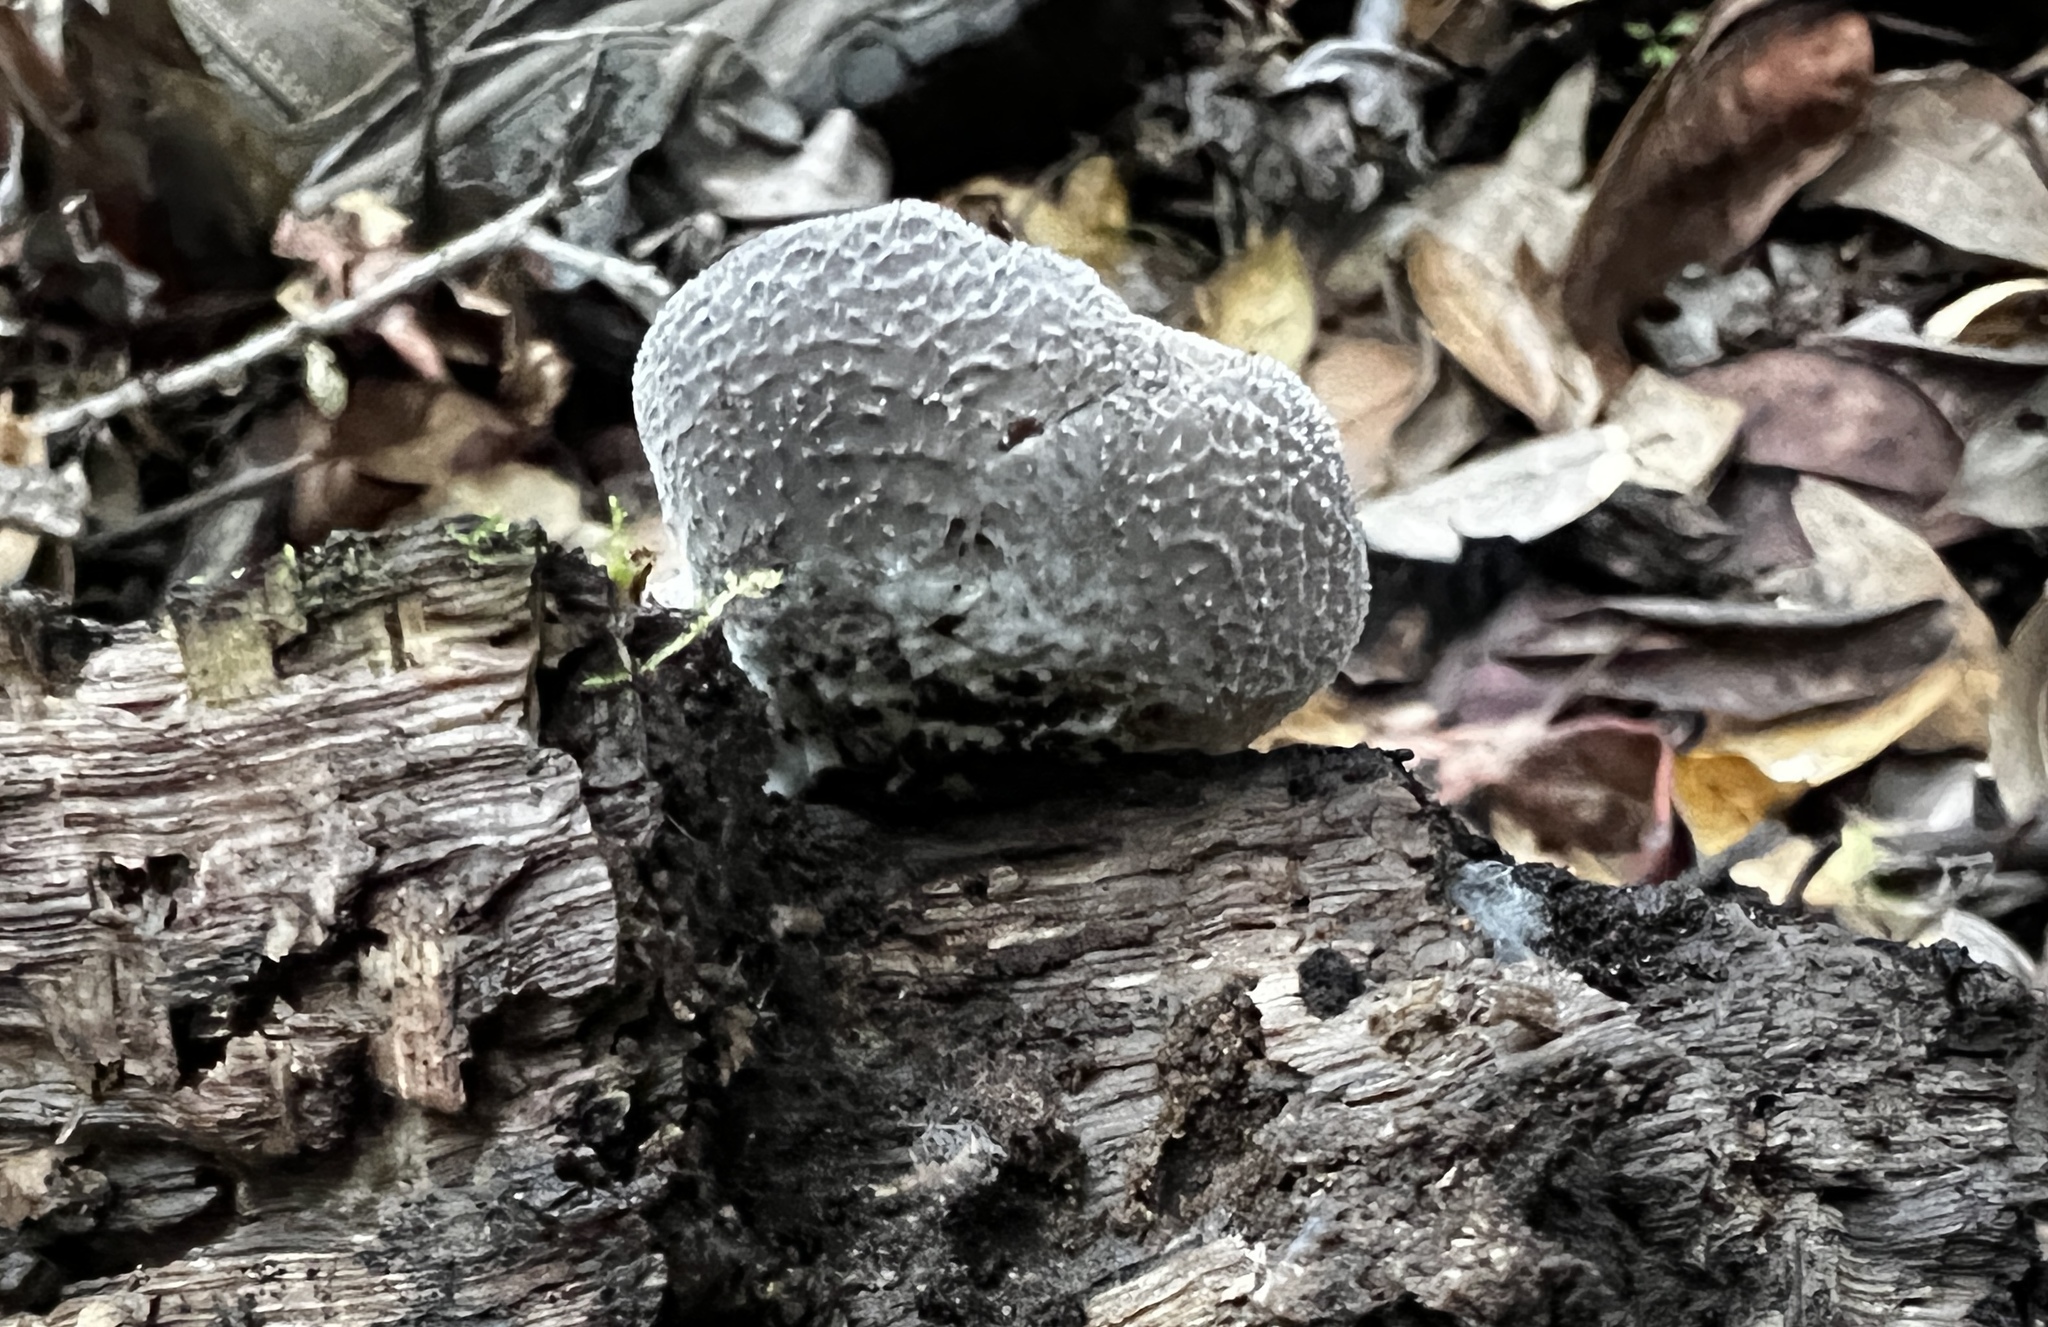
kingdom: Fungi
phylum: Basidiomycota
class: Agaricomycetes
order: Agaricales
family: Pleurotaceae
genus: Hohenbuehelia
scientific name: Hohenbuehelia mastrucata
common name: Woolly oyster
